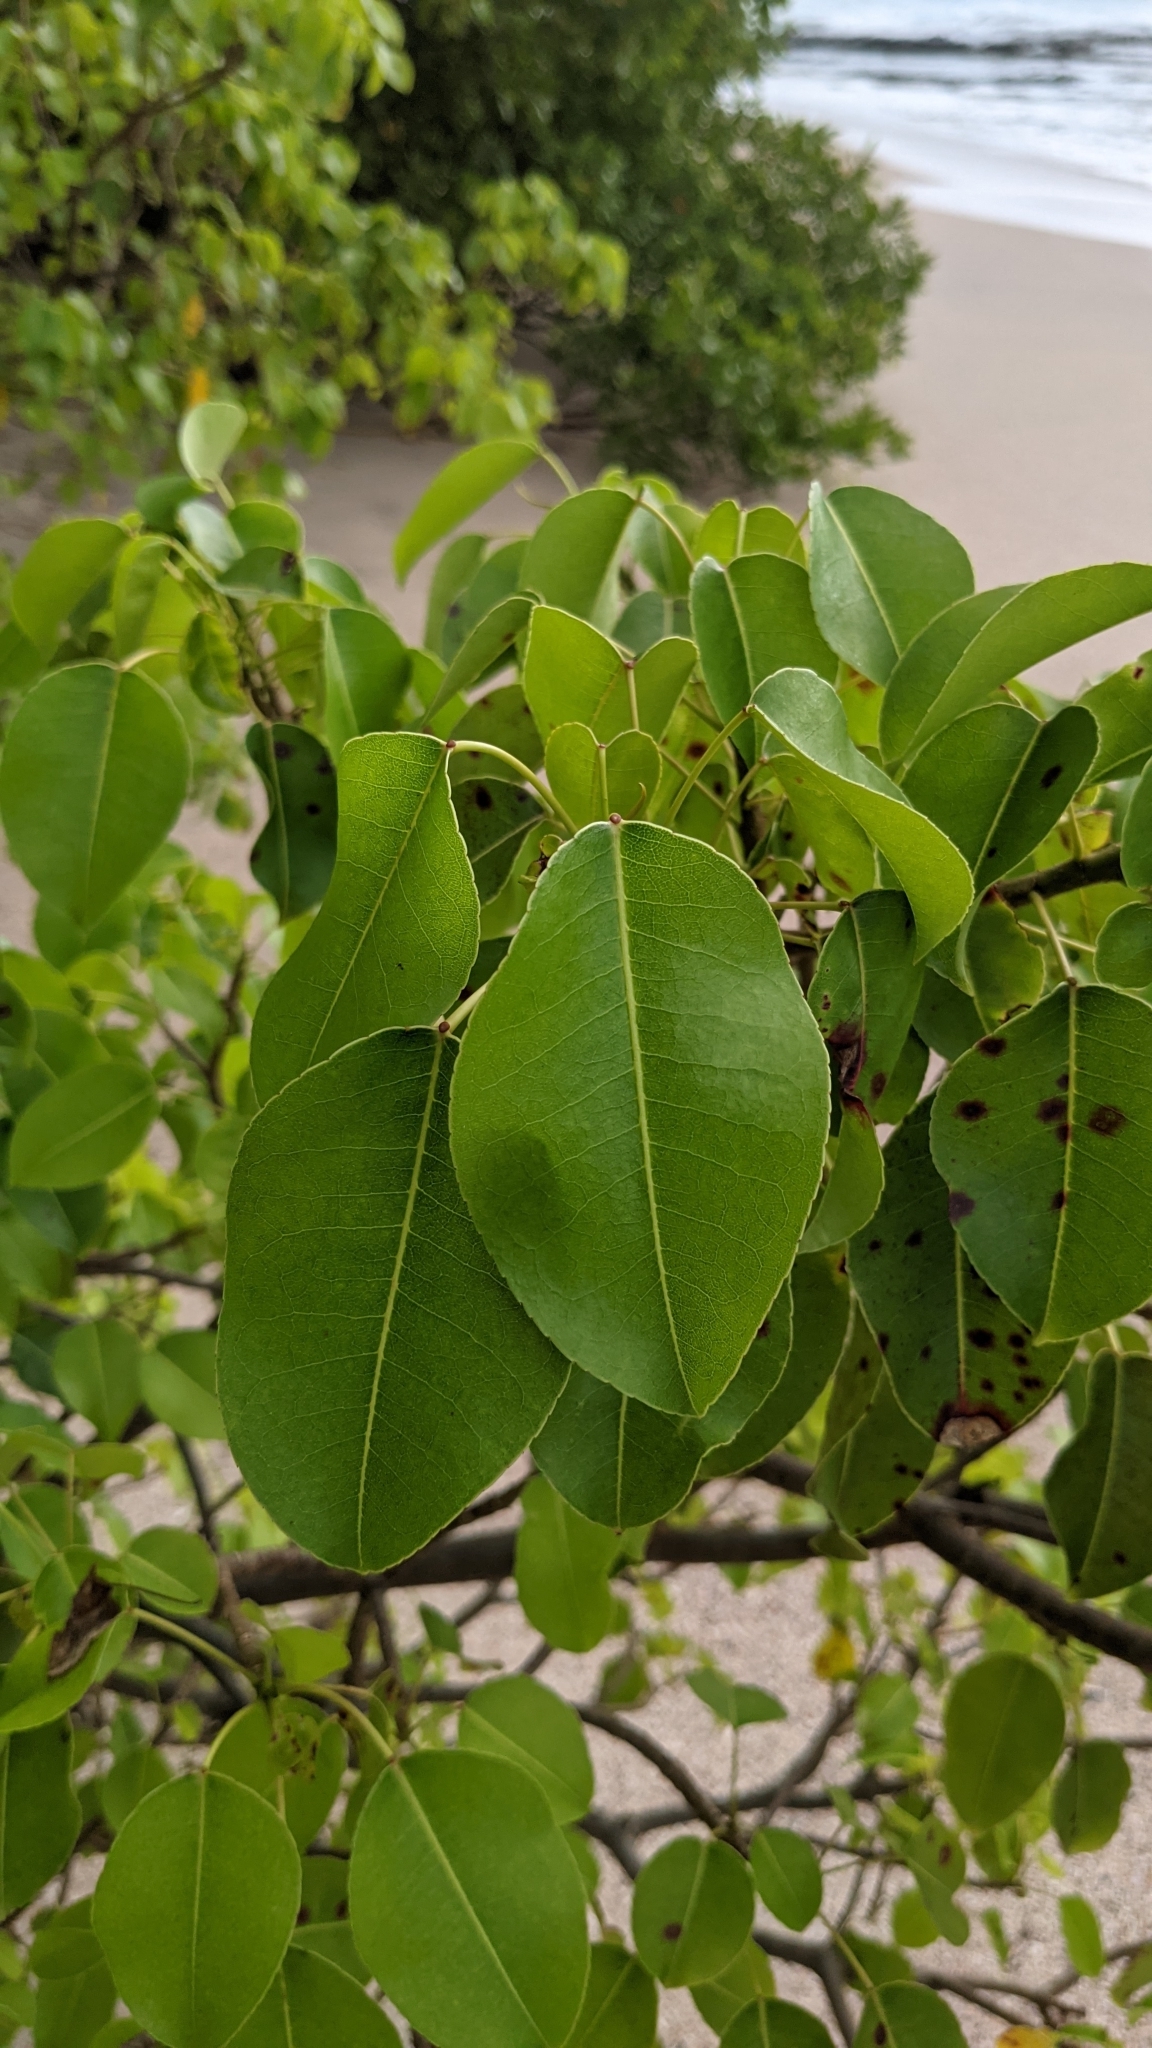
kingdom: Plantae
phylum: Tracheophyta
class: Magnoliopsida
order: Malpighiales
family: Euphorbiaceae
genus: Hippomane
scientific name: Hippomane mancinella
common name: Manchineel
